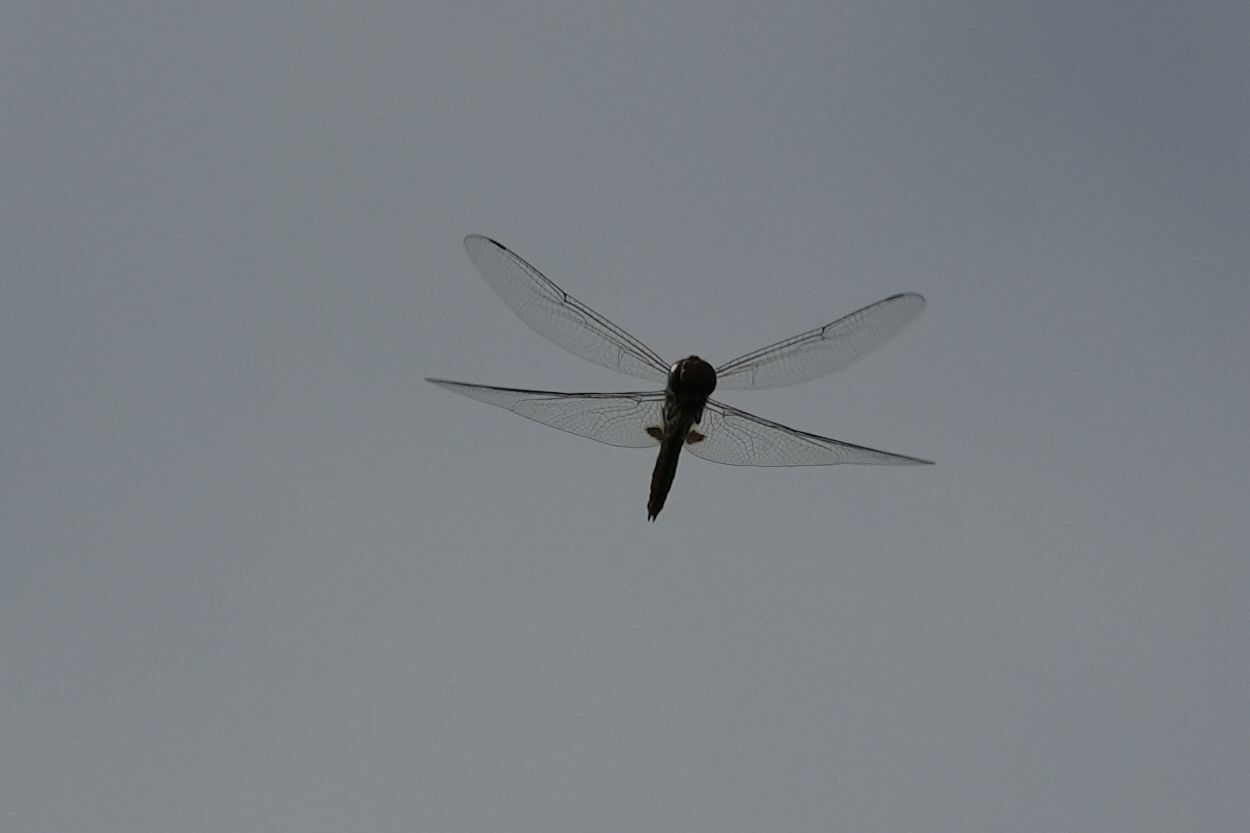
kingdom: Animalia
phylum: Arthropoda
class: Insecta
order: Odonata
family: Libellulidae
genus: Pantala
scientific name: Pantala hymenaea
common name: Spot-winged glider
